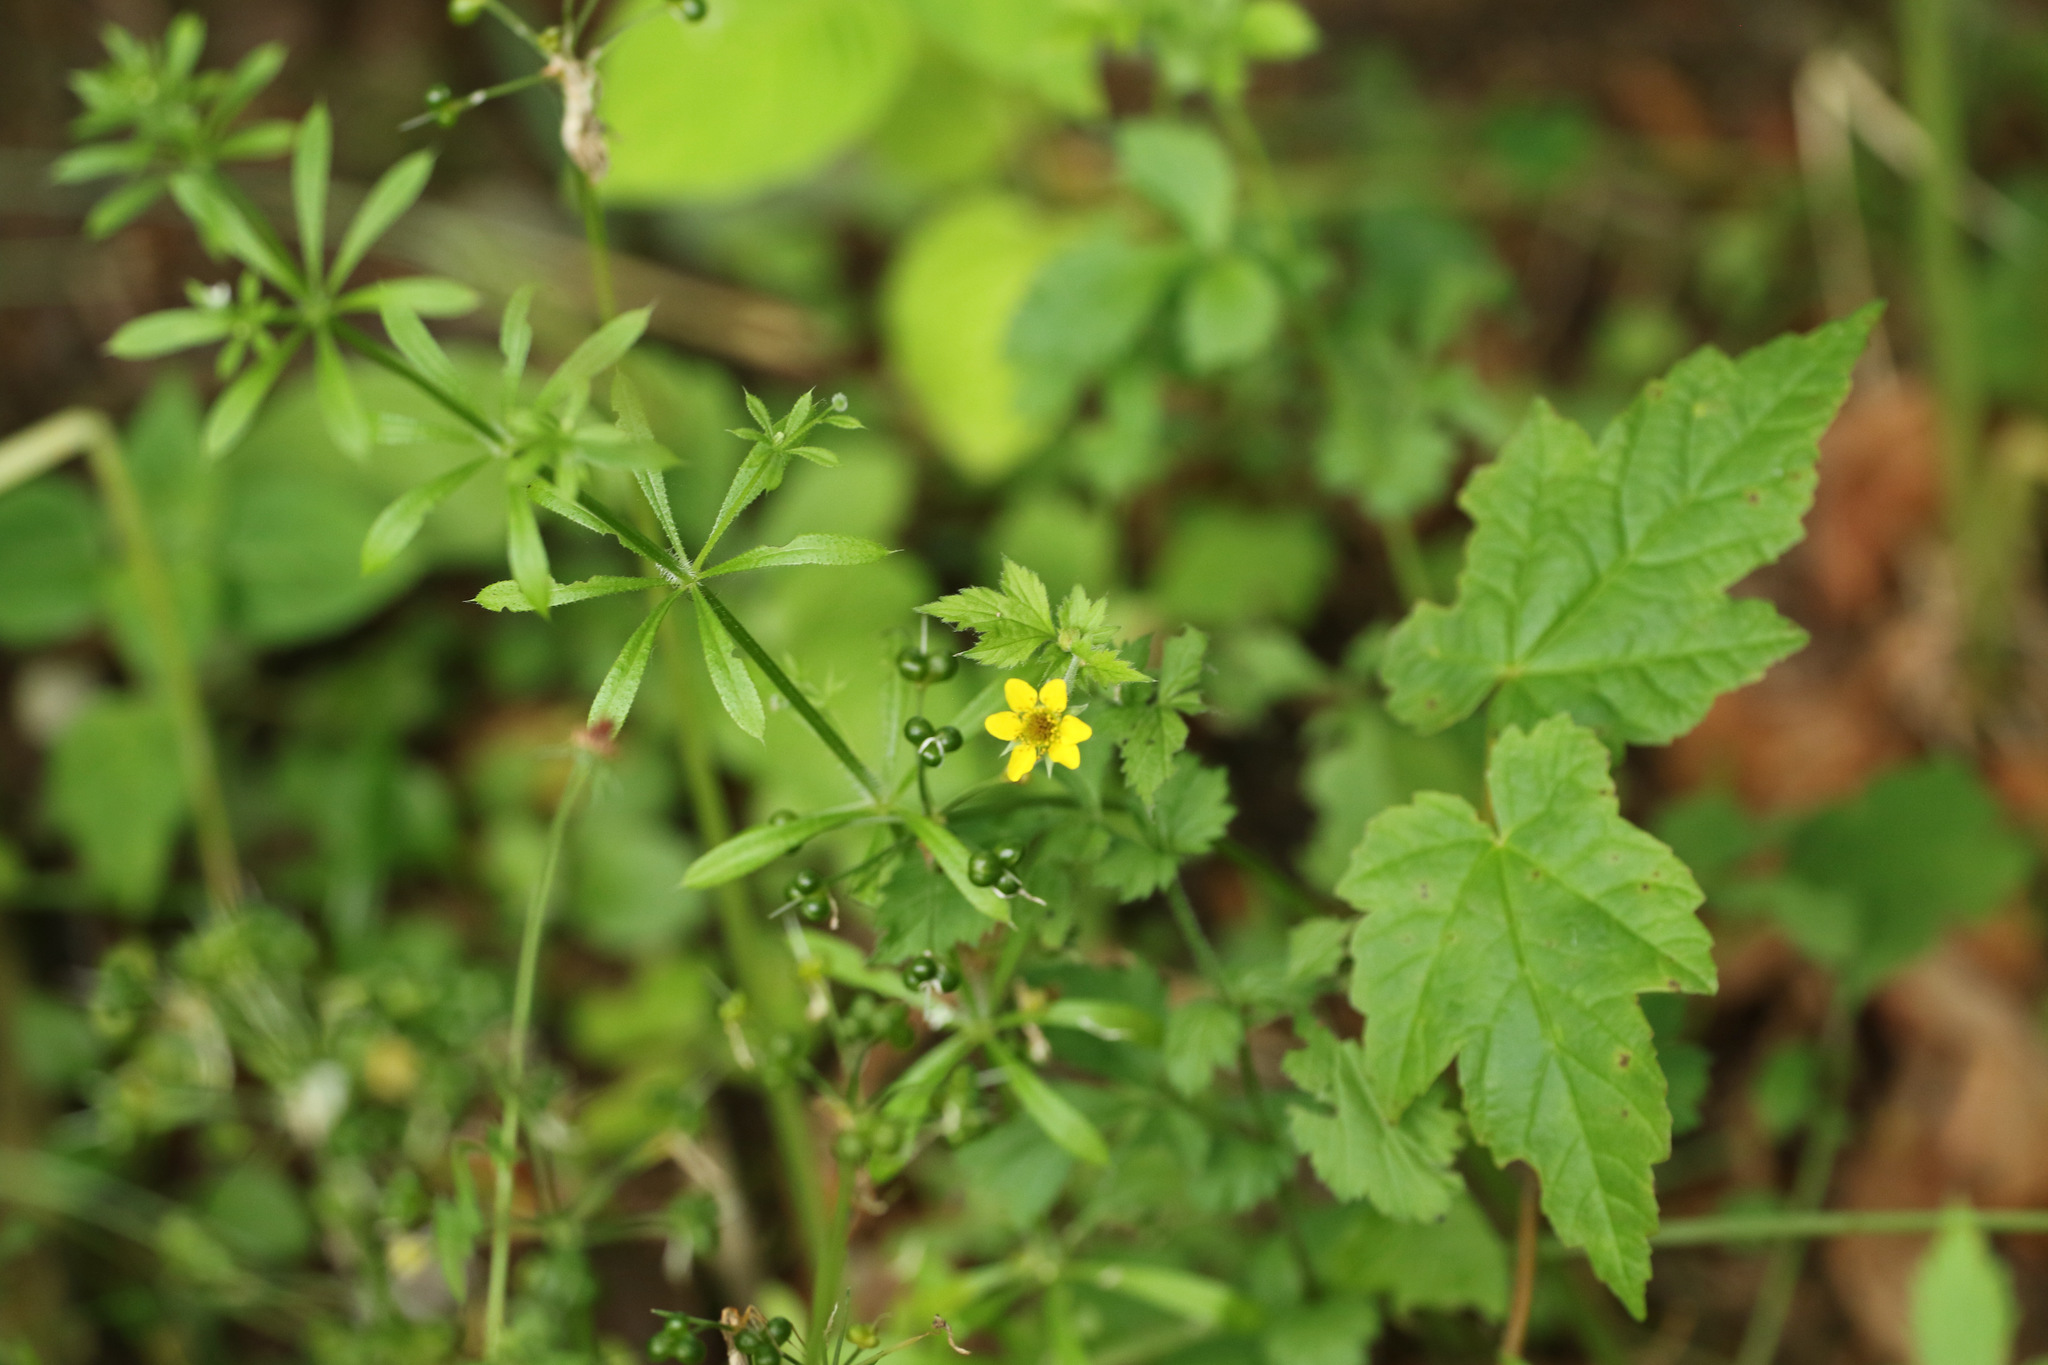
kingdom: Plantae
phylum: Tracheophyta
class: Magnoliopsida
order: Rosales
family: Rosaceae
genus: Geum
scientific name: Geum urbanum
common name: Wood avens
